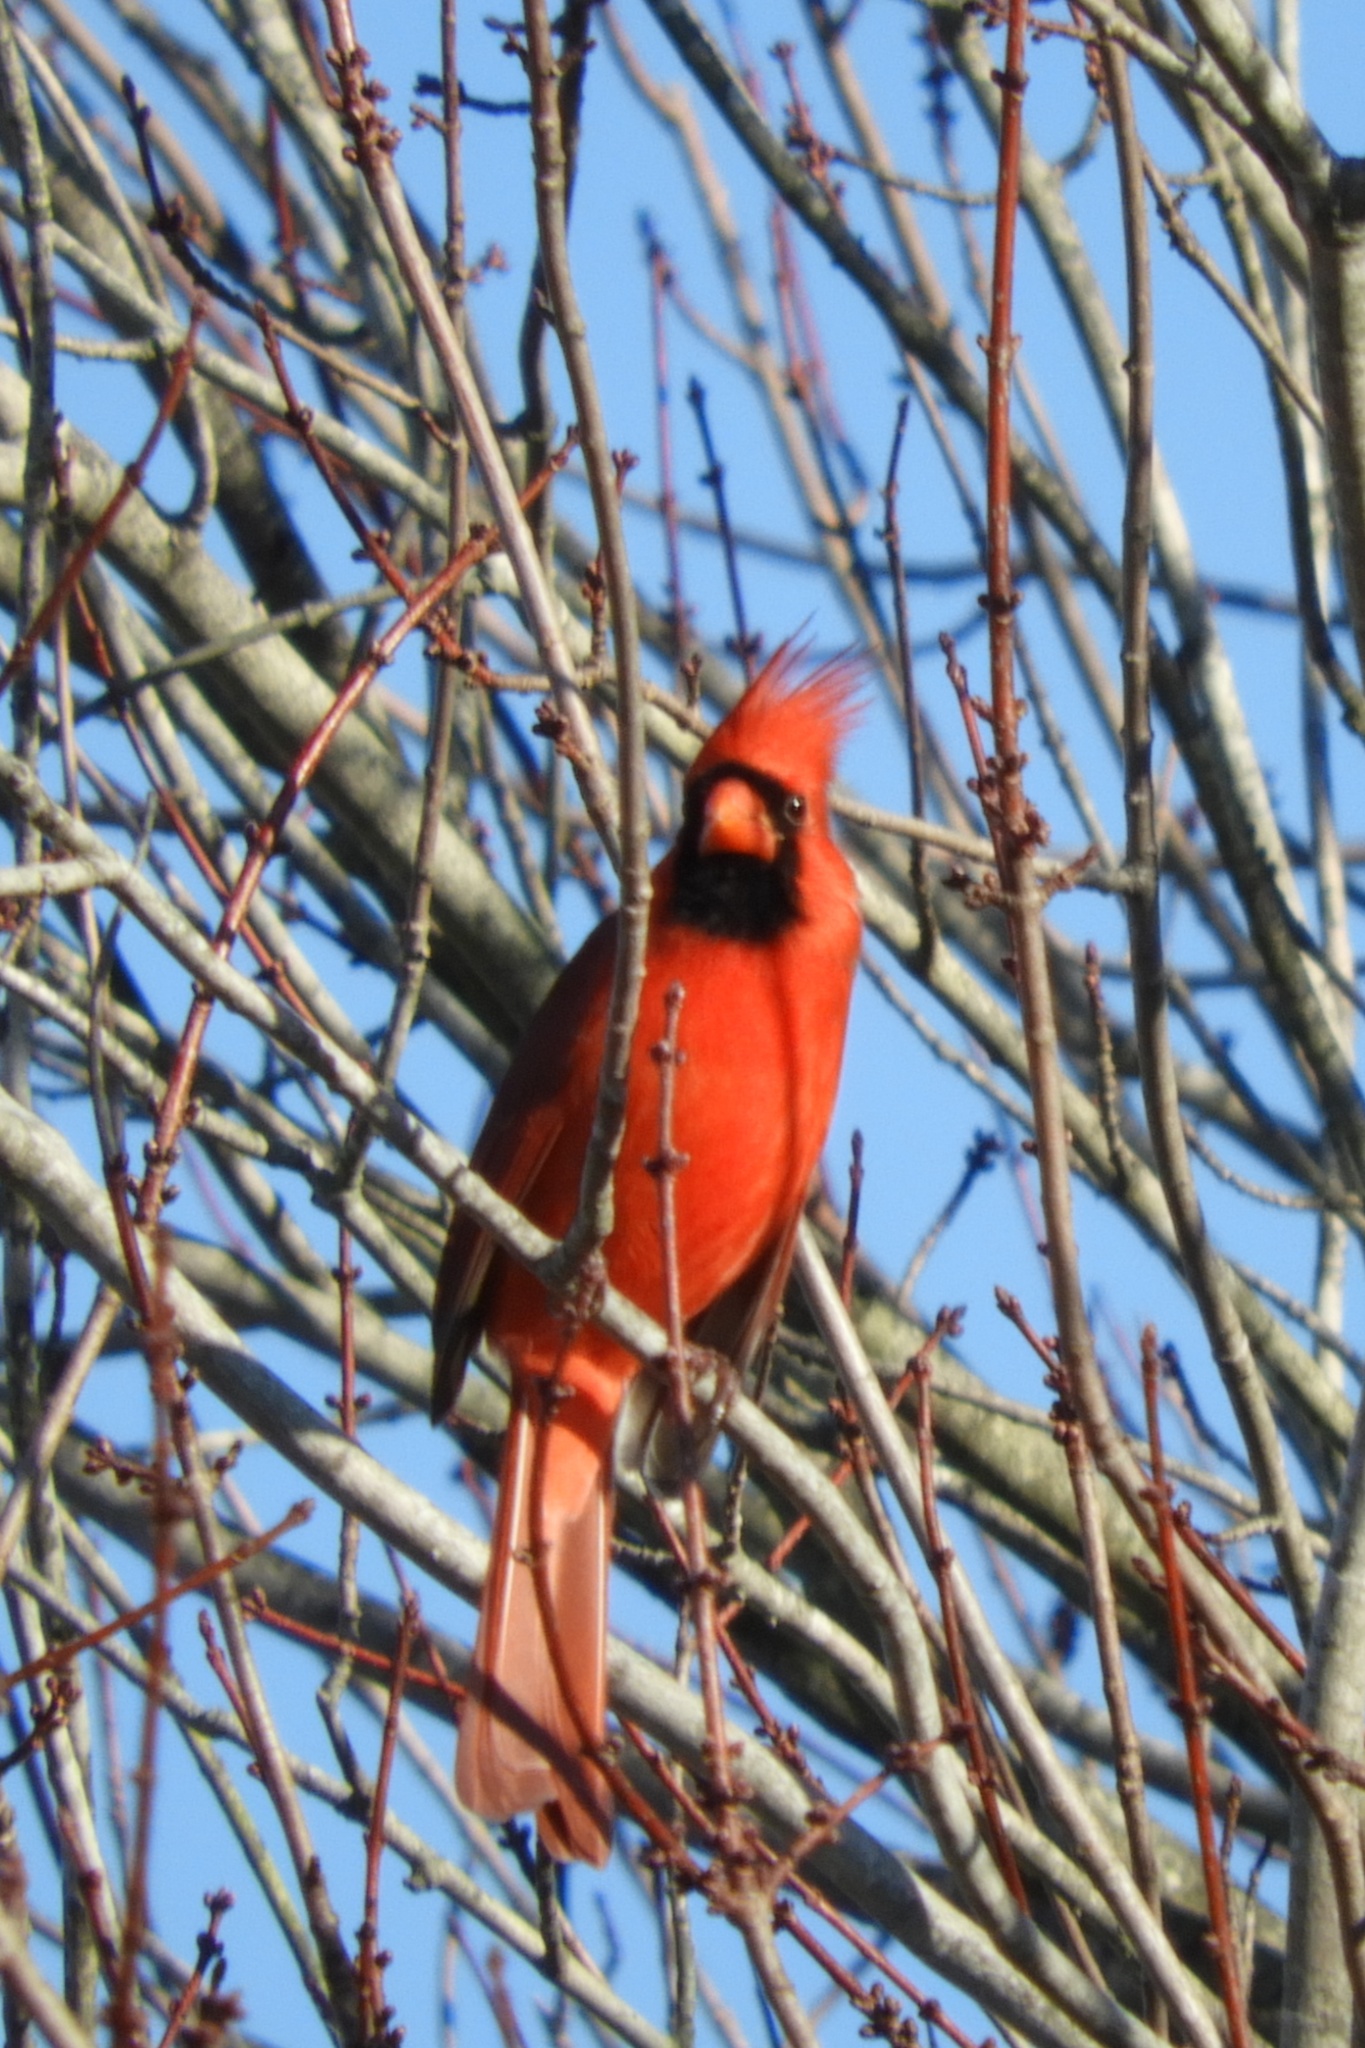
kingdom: Animalia
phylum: Chordata
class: Aves
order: Passeriformes
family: Cardinalidae
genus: Cardinalis
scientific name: Cardinalis cardinalis
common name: Northern cardinal
